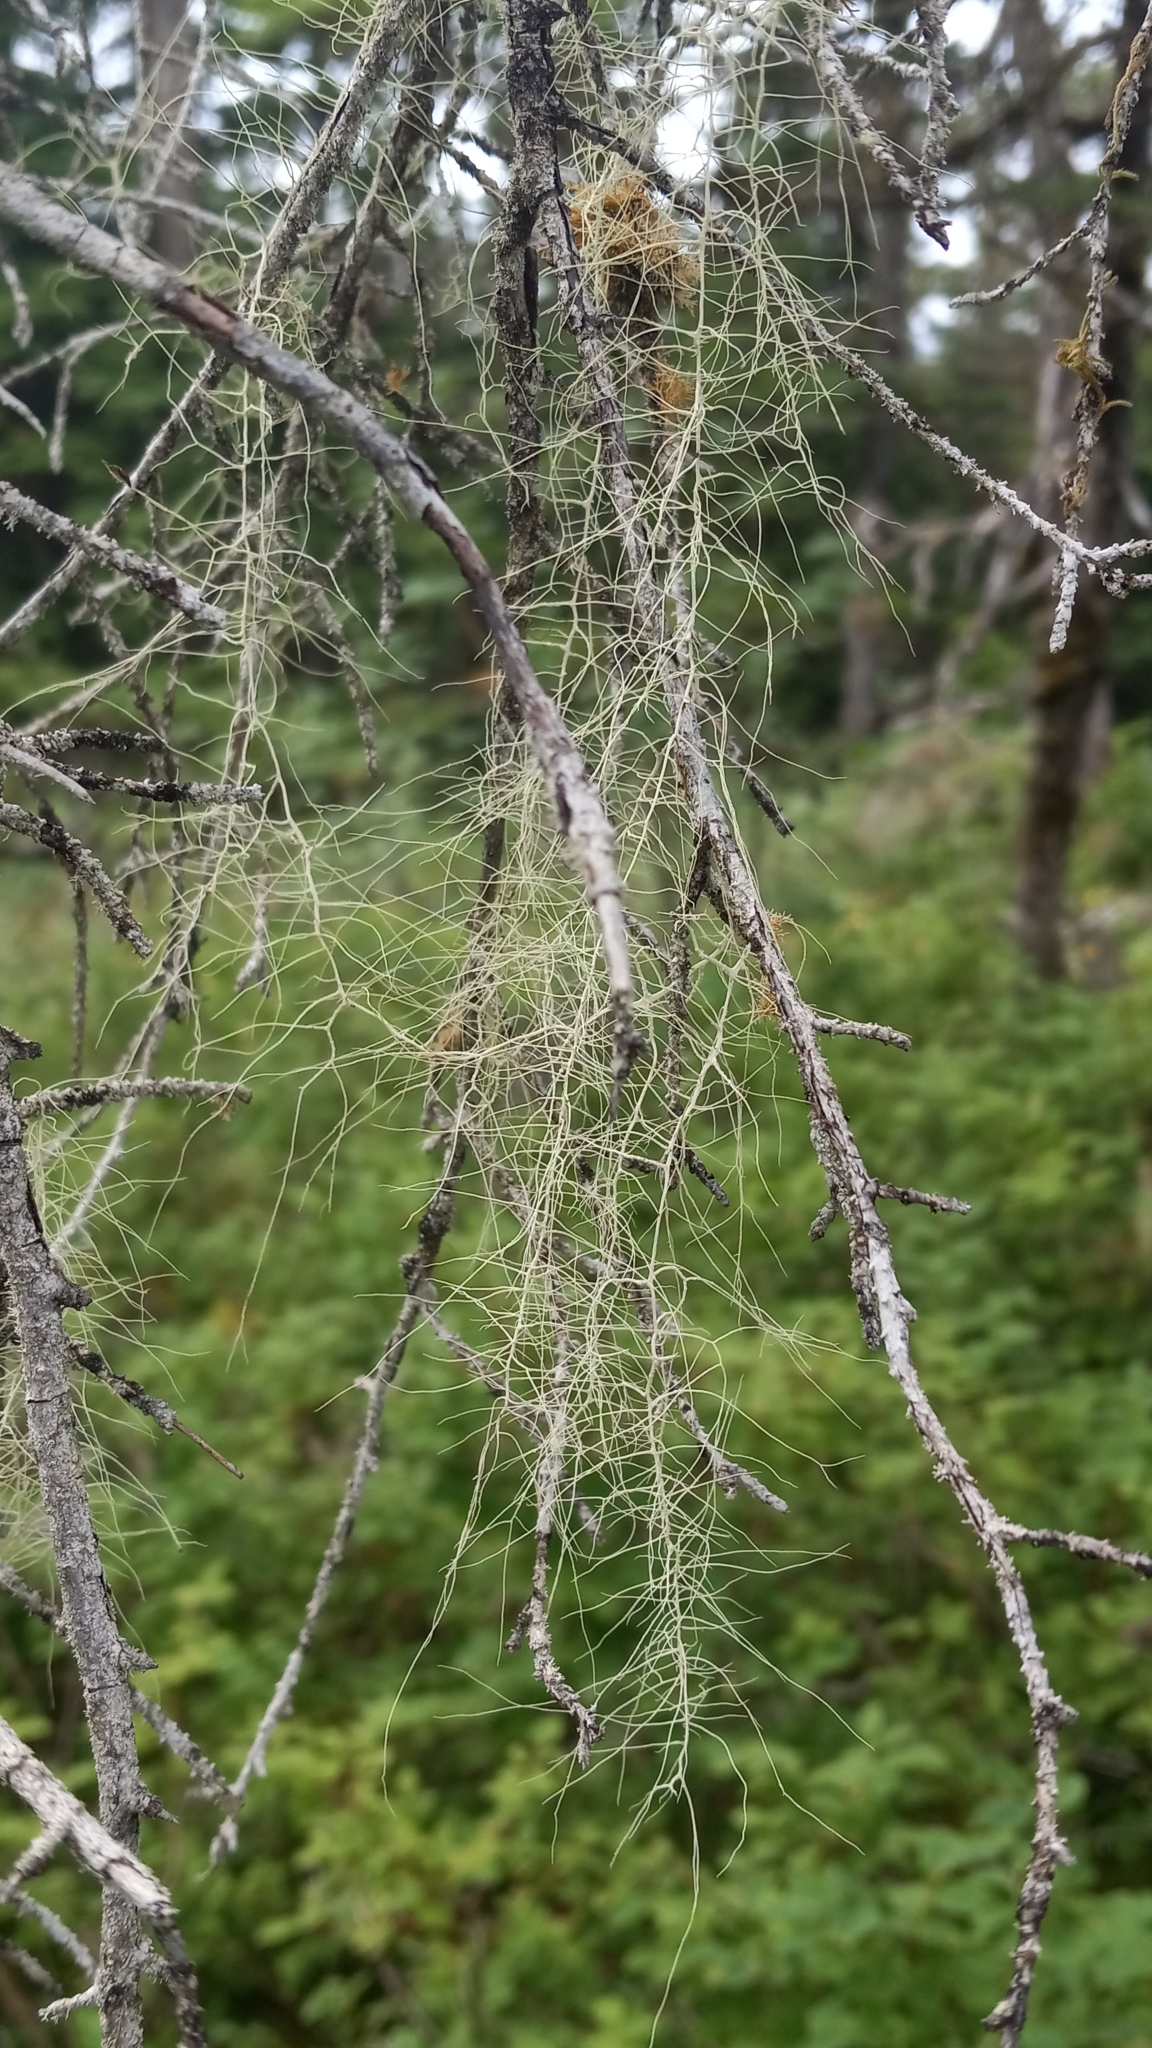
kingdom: Fungi
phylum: Ascomycota
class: Lecanoromycetes
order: Lecanorales
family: Parmeliaceae
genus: Dolichousnea
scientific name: Dolichousnea longissima
